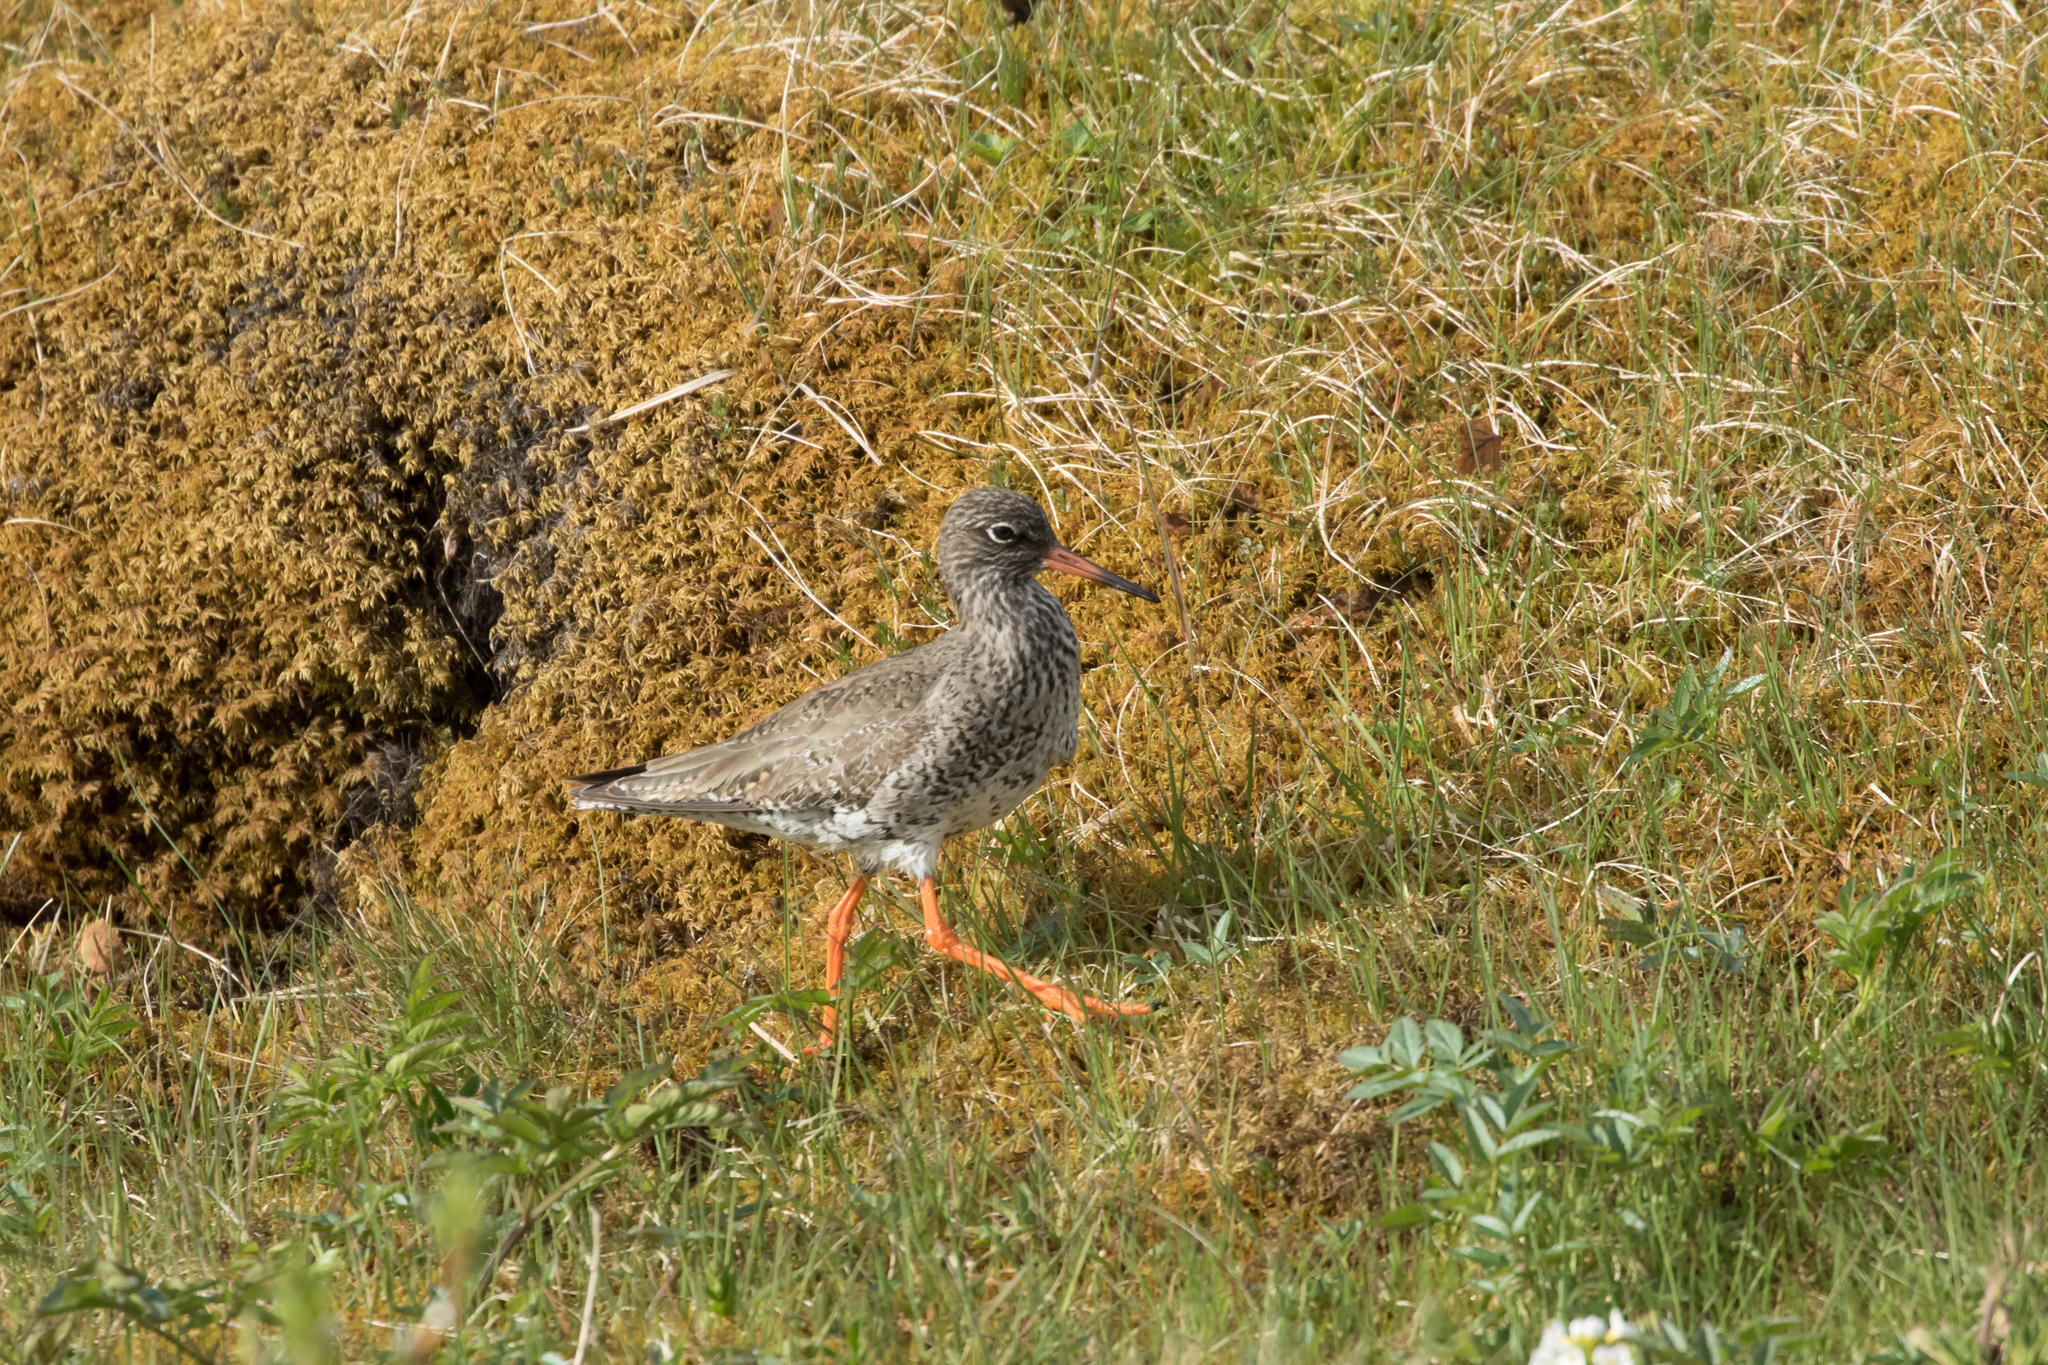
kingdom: Animalia
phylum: Chordata
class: Aves
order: Charadriiformes
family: Scolopacidae
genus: Tringa
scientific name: Tringa totanus
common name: Common redshank
